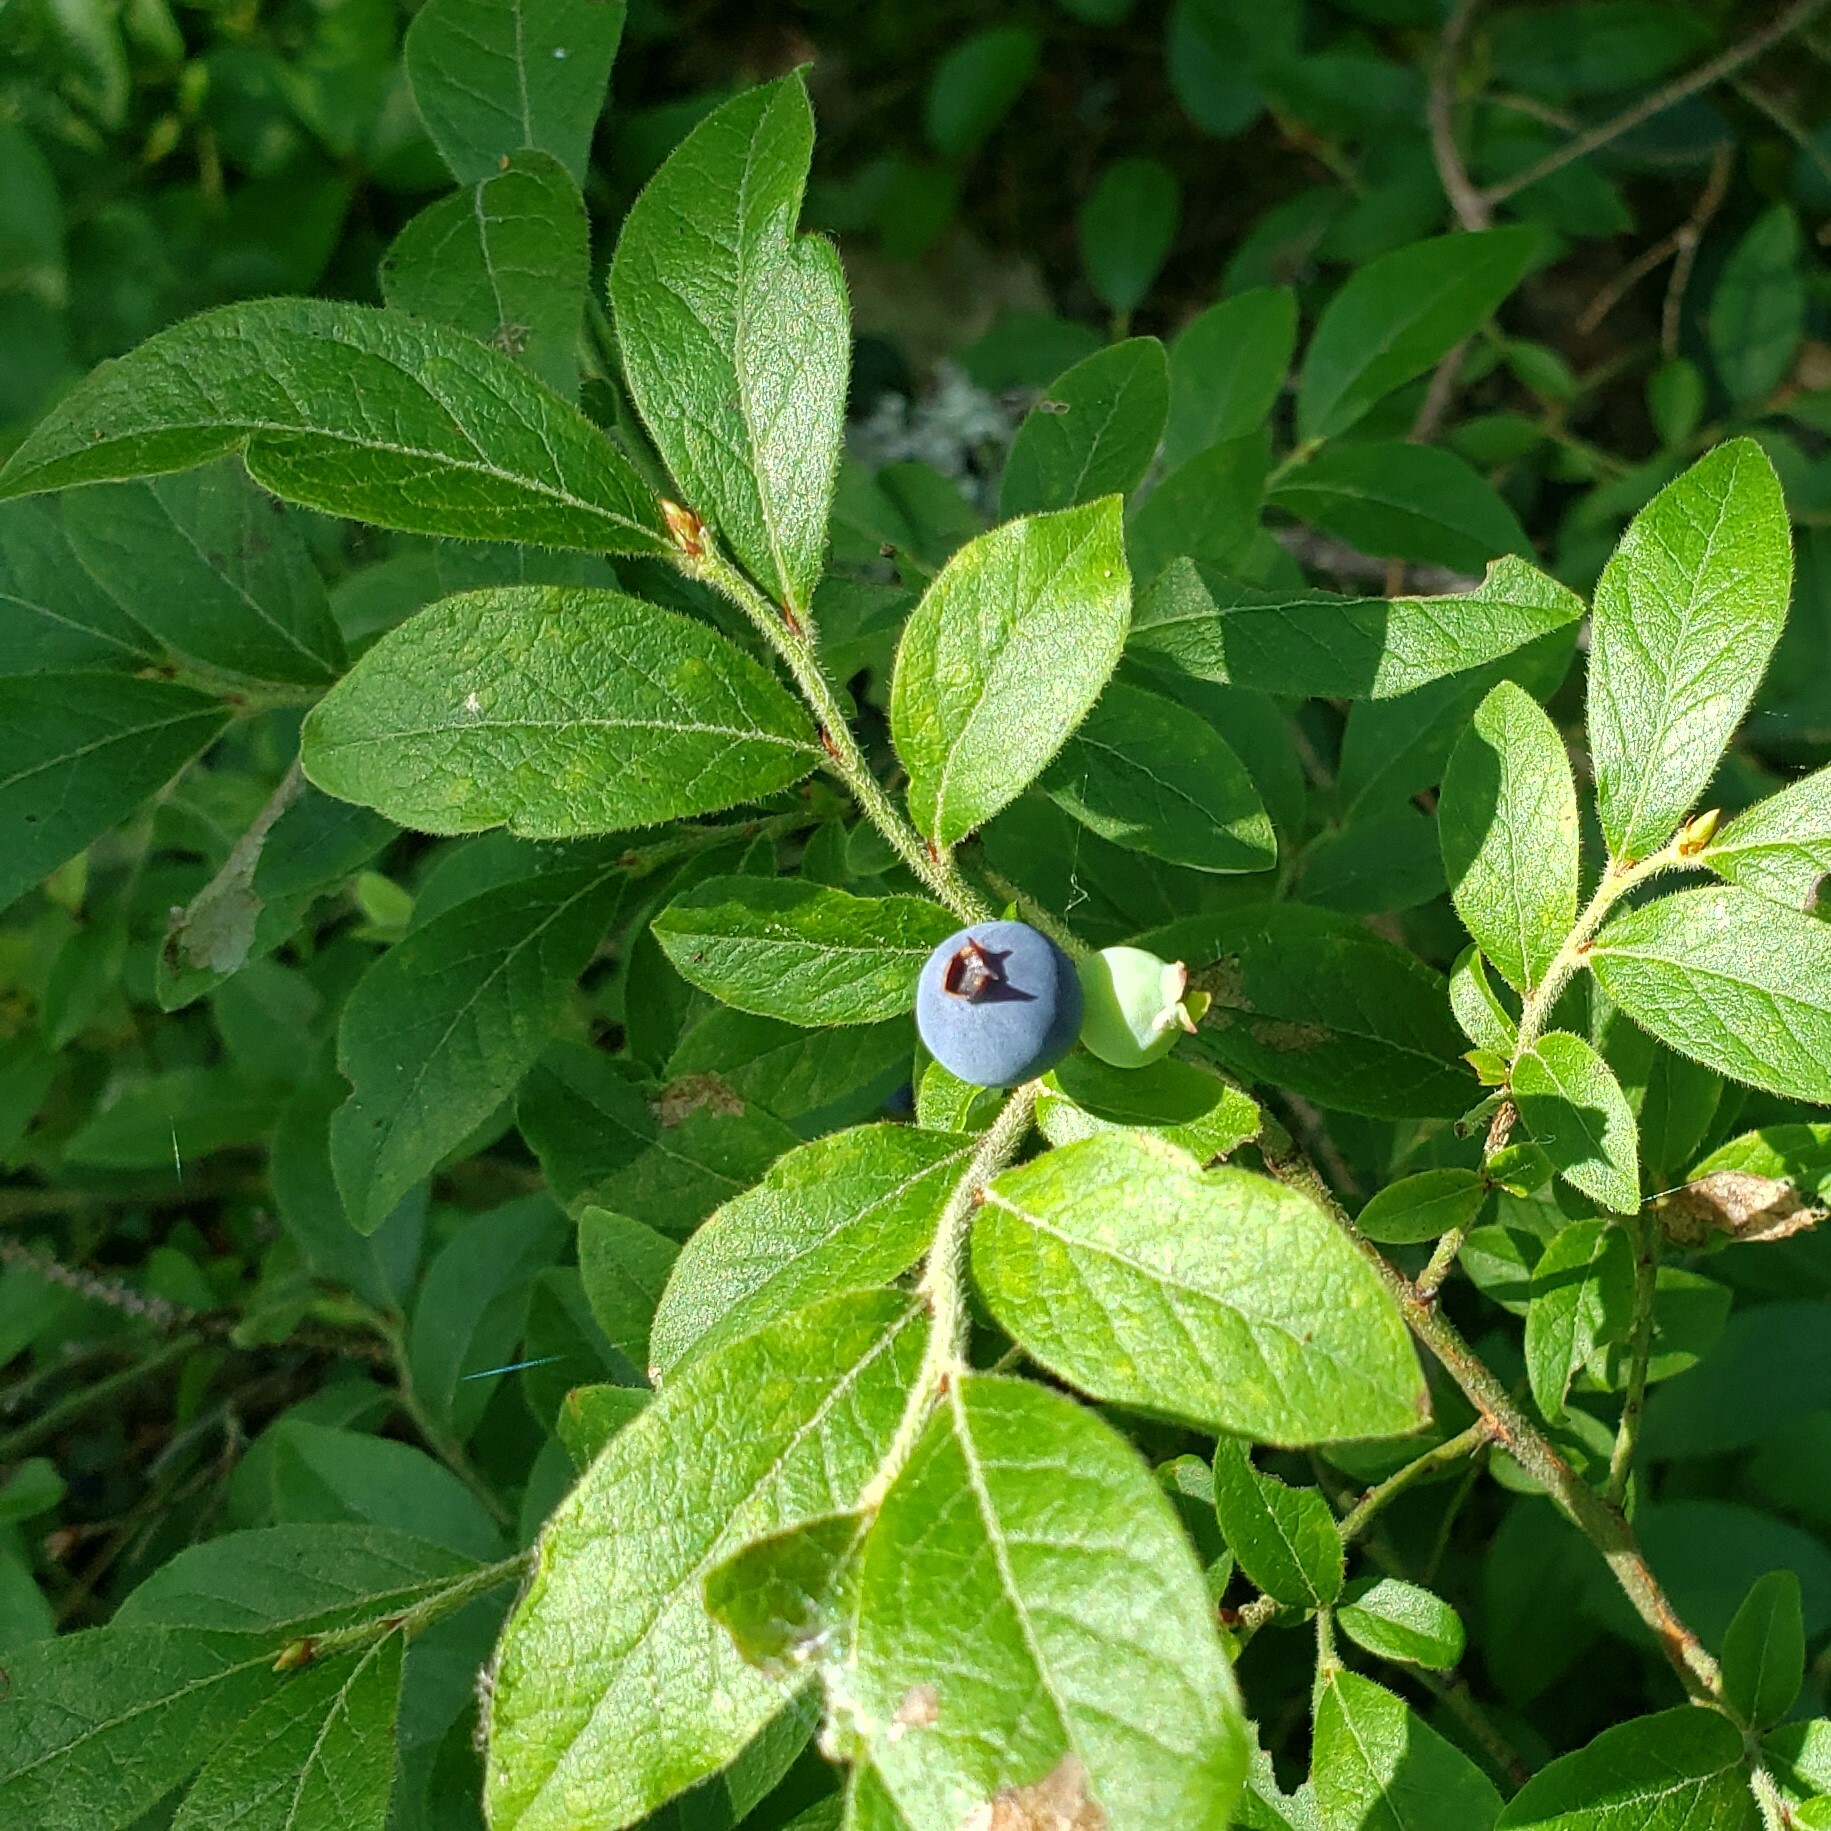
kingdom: Plantae
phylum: Tracheophyta
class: Magnoliopsida
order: Ericales
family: Ericaceae
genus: Vaccinium
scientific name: Vaccinium angustifolium
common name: Early lowbush blueberry
